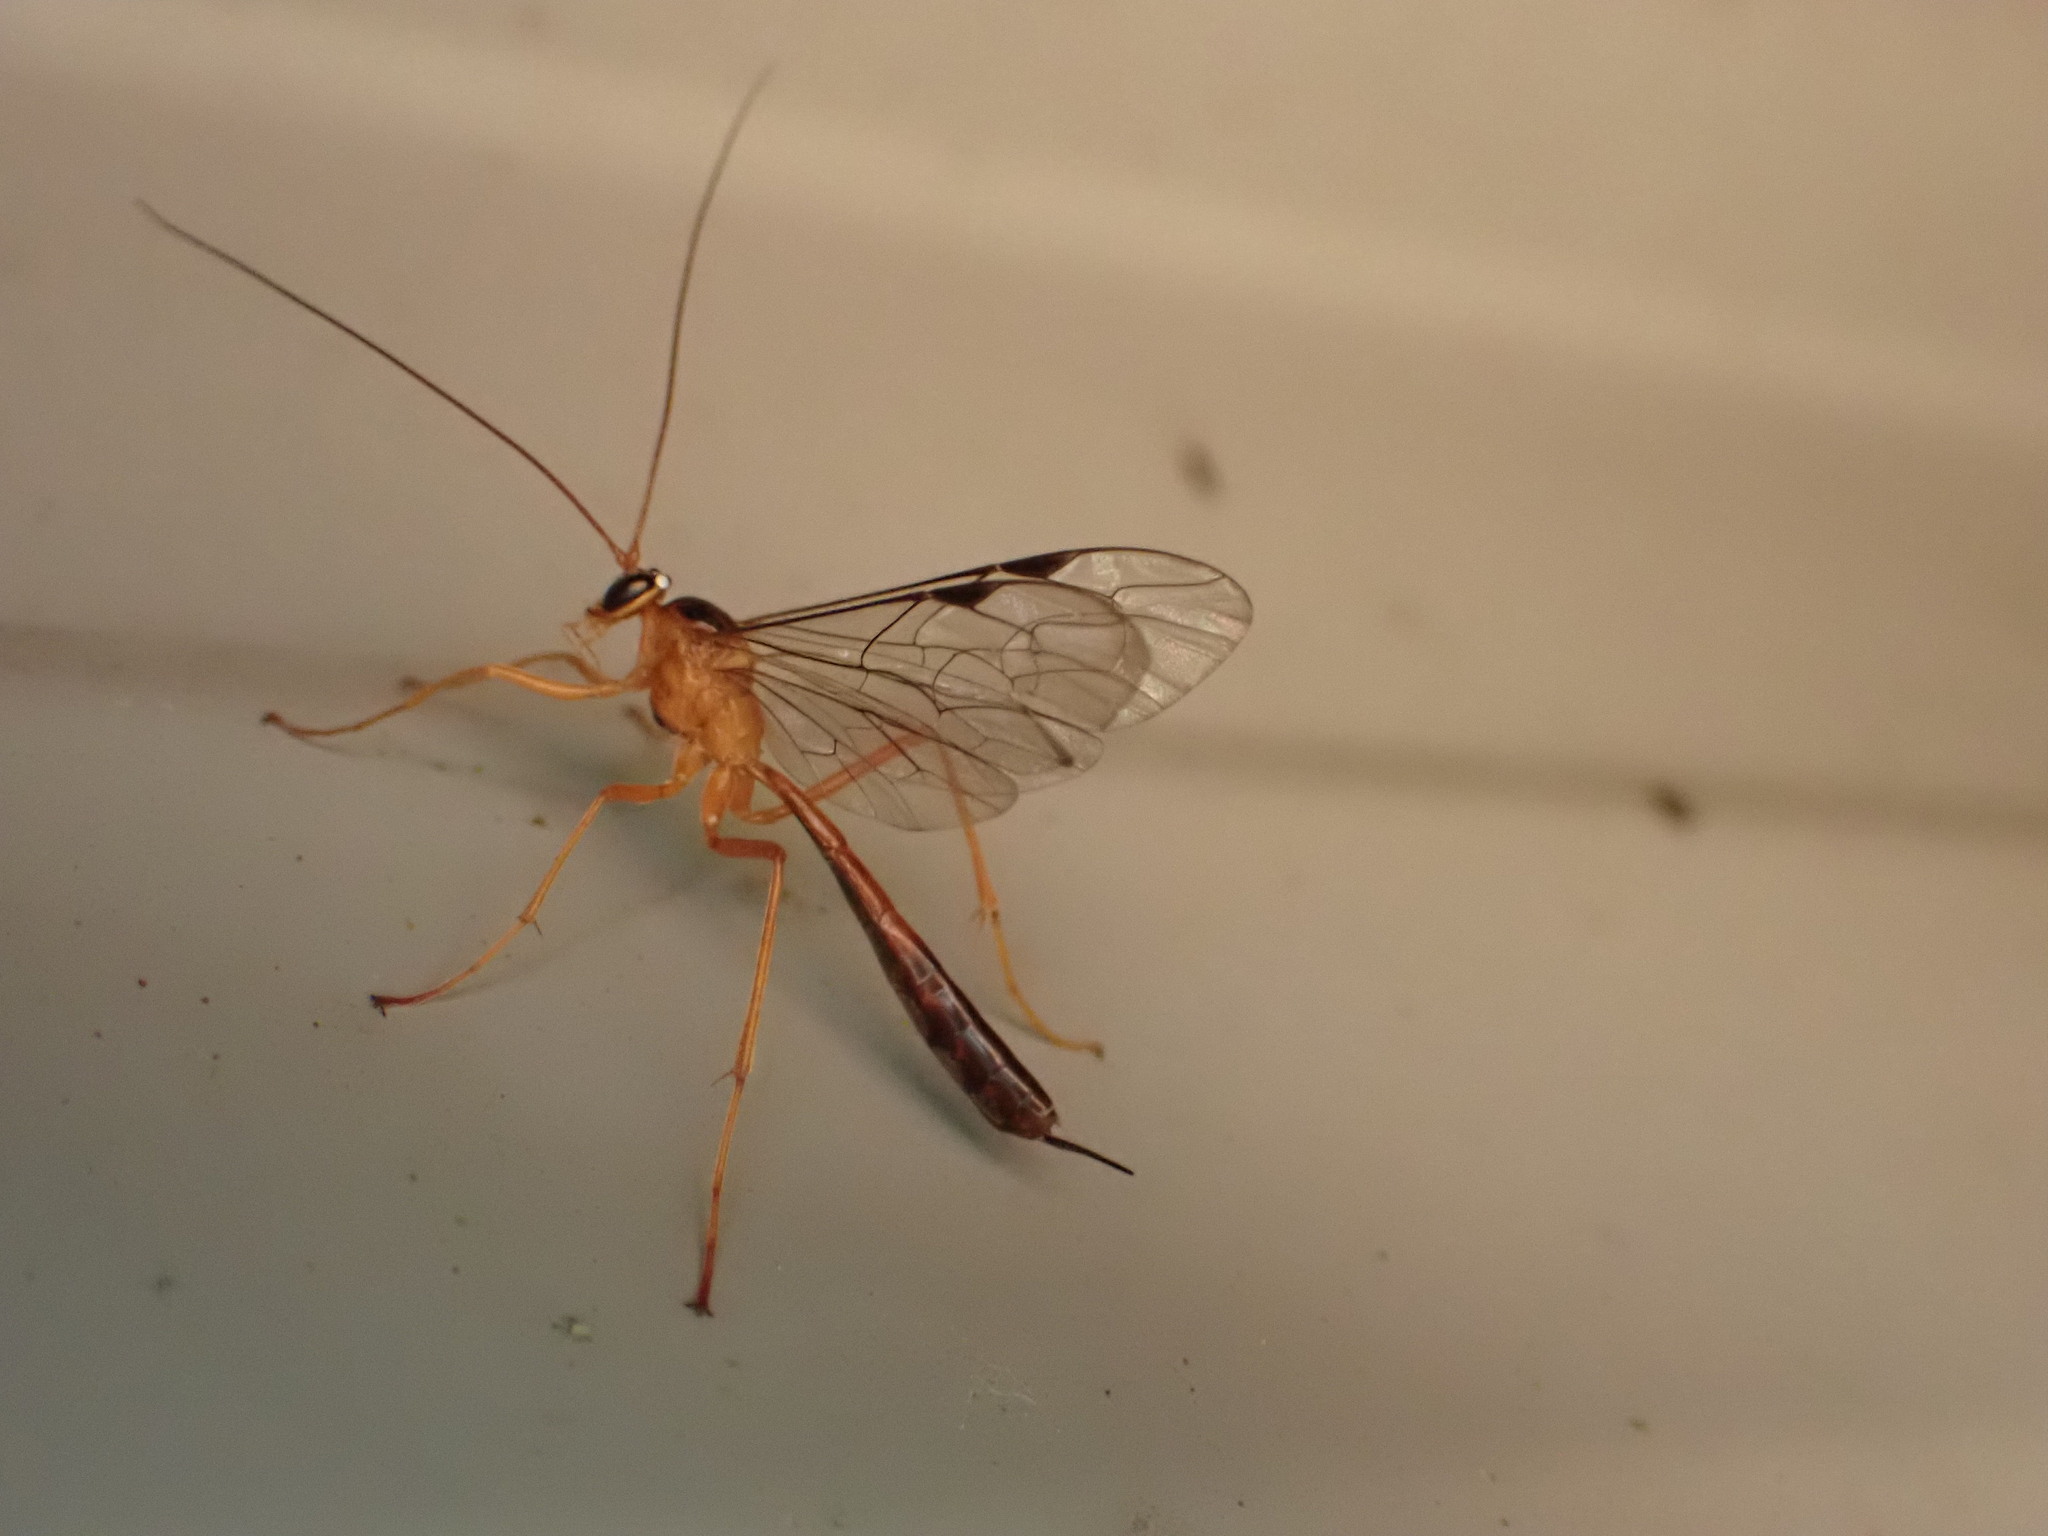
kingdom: Animalia
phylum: Arthropoda
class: Insecta
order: Hymenoptera
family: Ichneumonidae
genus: Netelia
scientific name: Netelia ephippiata
